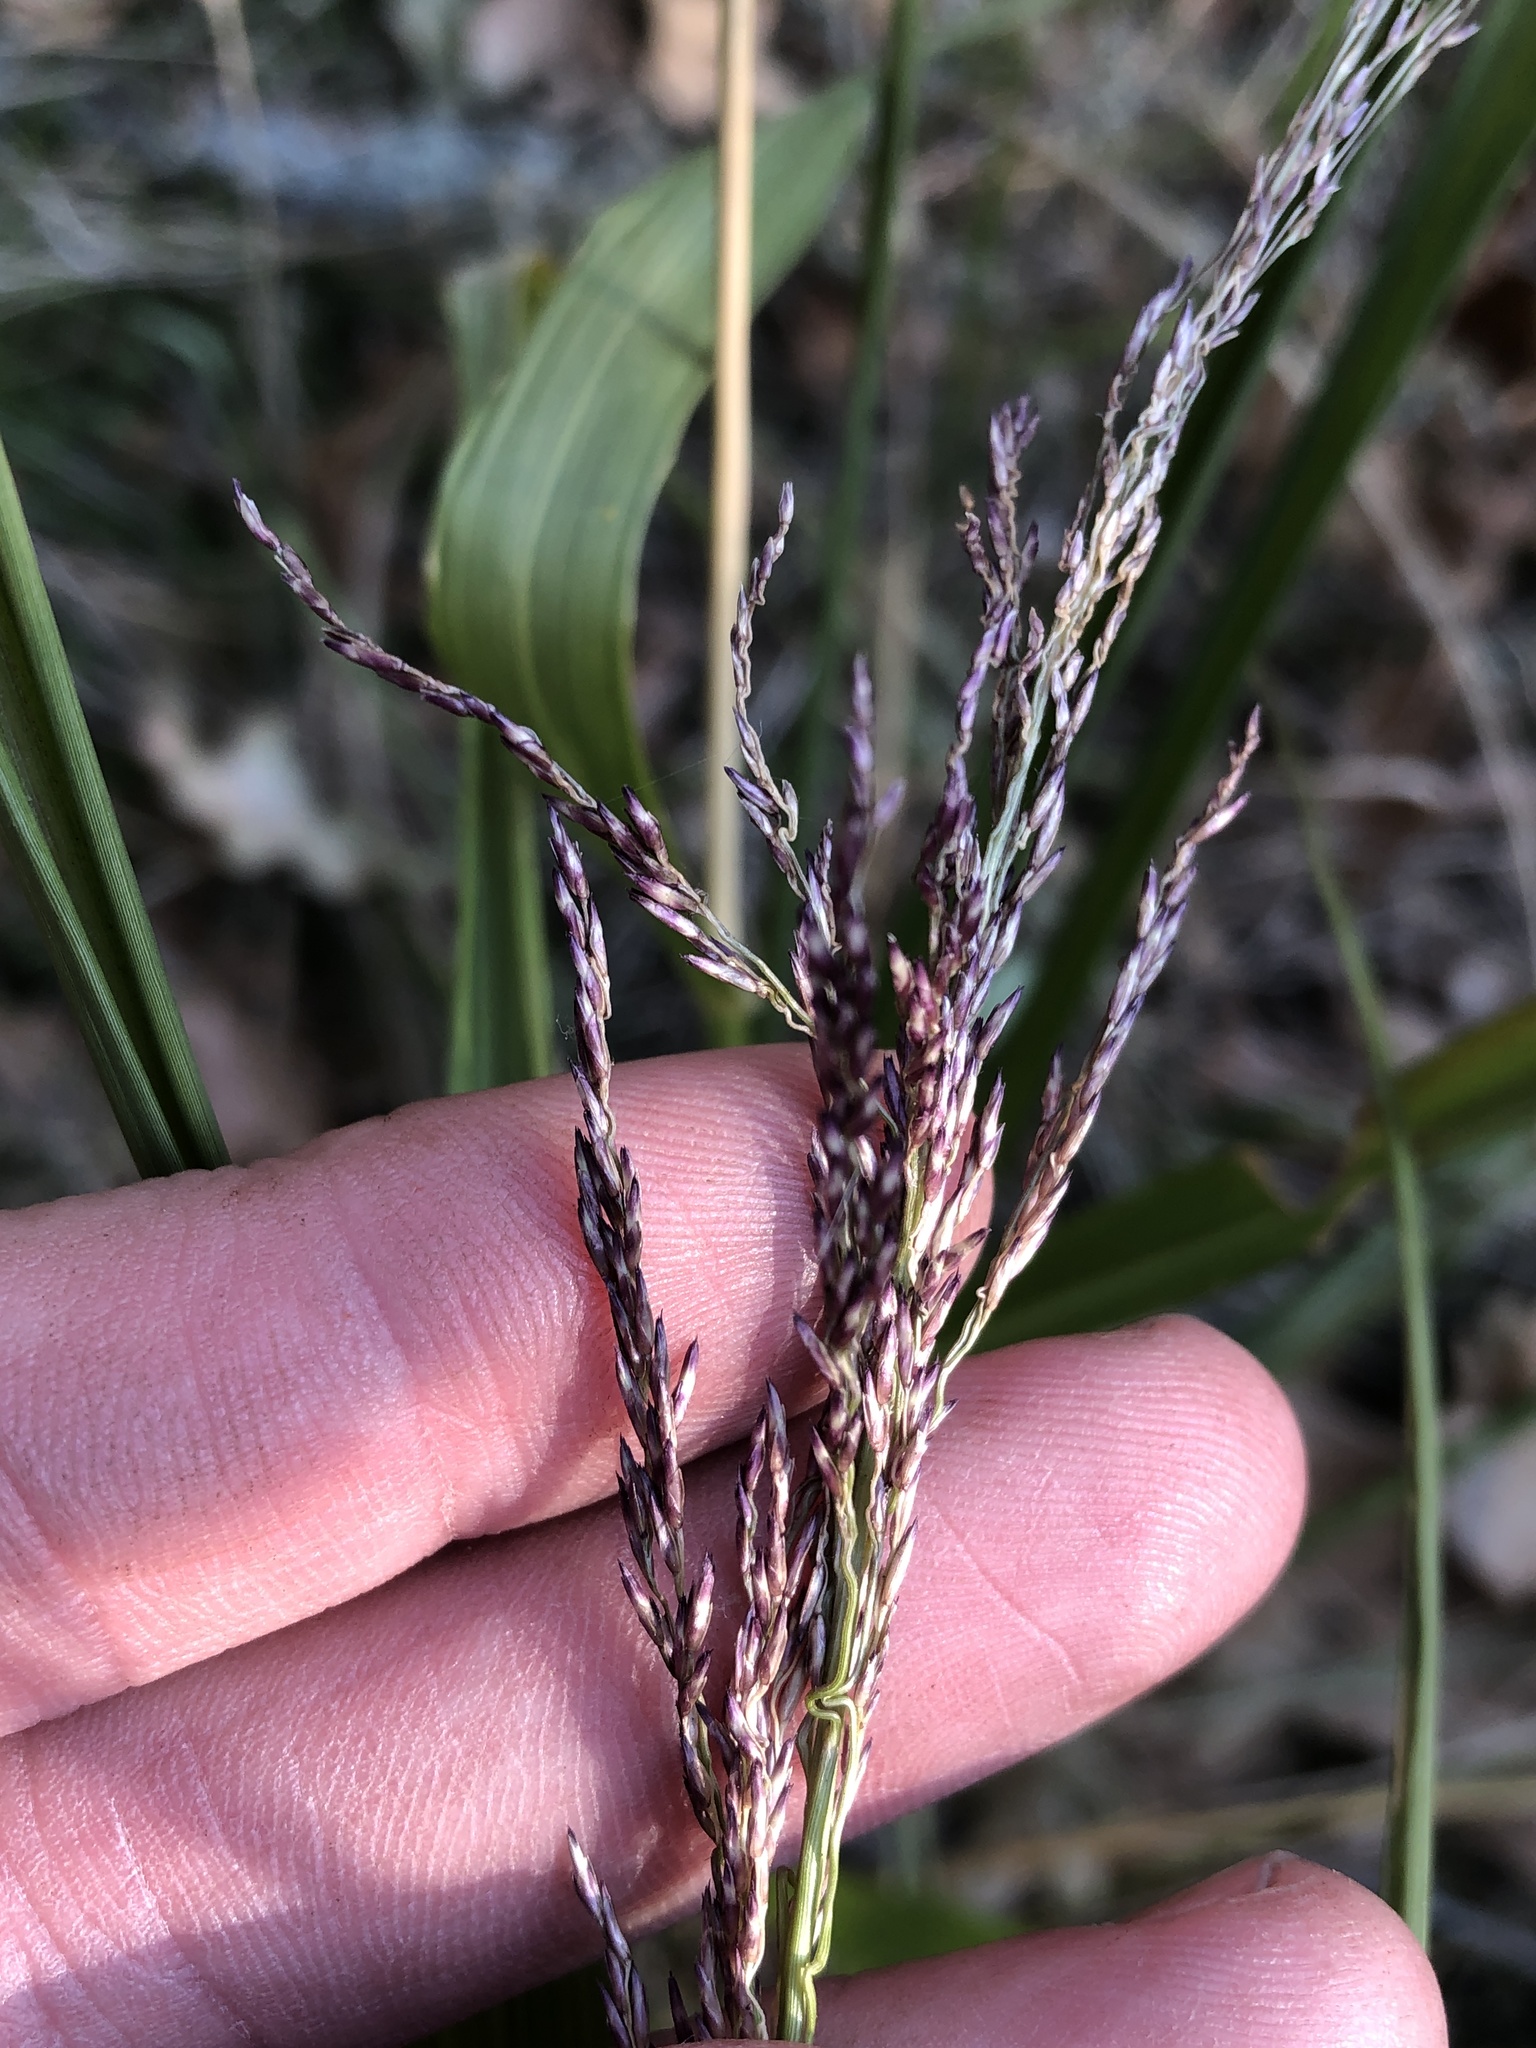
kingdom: Plantae
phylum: Tracheophyta
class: Liliopsida
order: Poales
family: Poaceae
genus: Tridens
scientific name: Tridens flavus
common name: Purpletop
